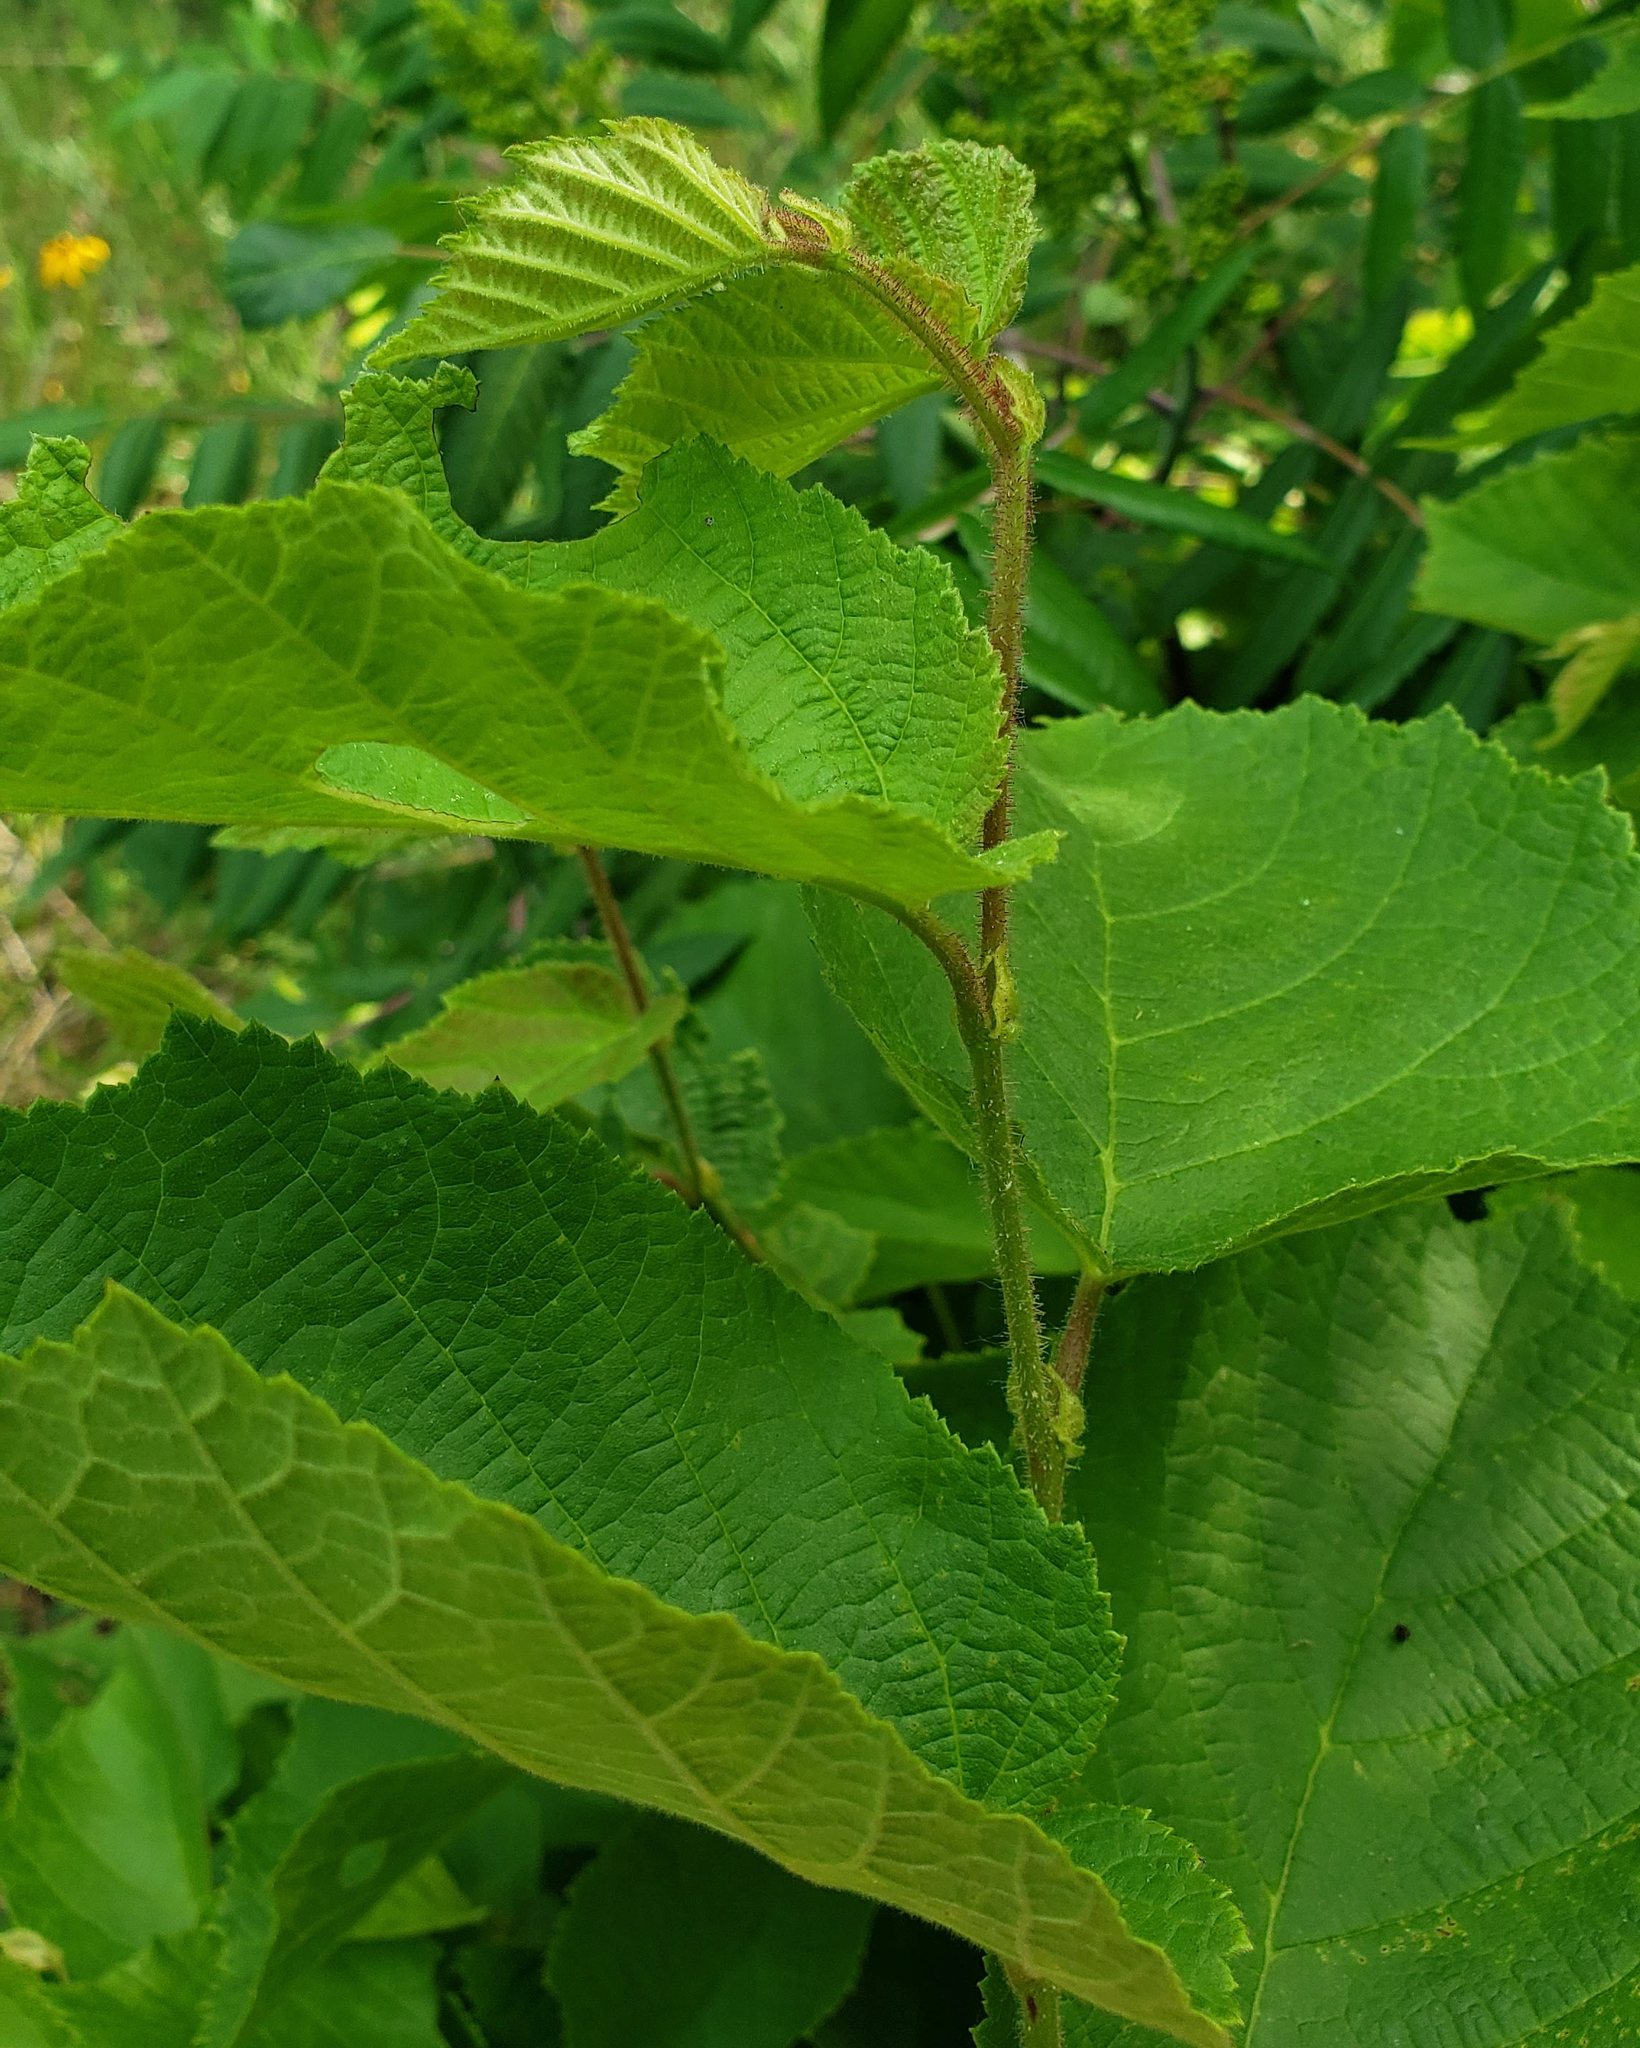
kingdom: Plantae
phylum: Tracheophyta
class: Magnoliopsida
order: Fagales
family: Betulaceae
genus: Corylus
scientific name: Corylus americana
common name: American hazel
